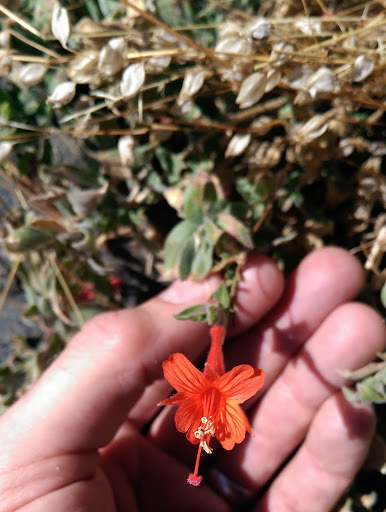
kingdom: Plantae
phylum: Tracheophyta
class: Magnoliopsida
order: Myrtales
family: Onagraceae
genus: Epilobium
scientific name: Epilobium canum
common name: California-fuchsia
